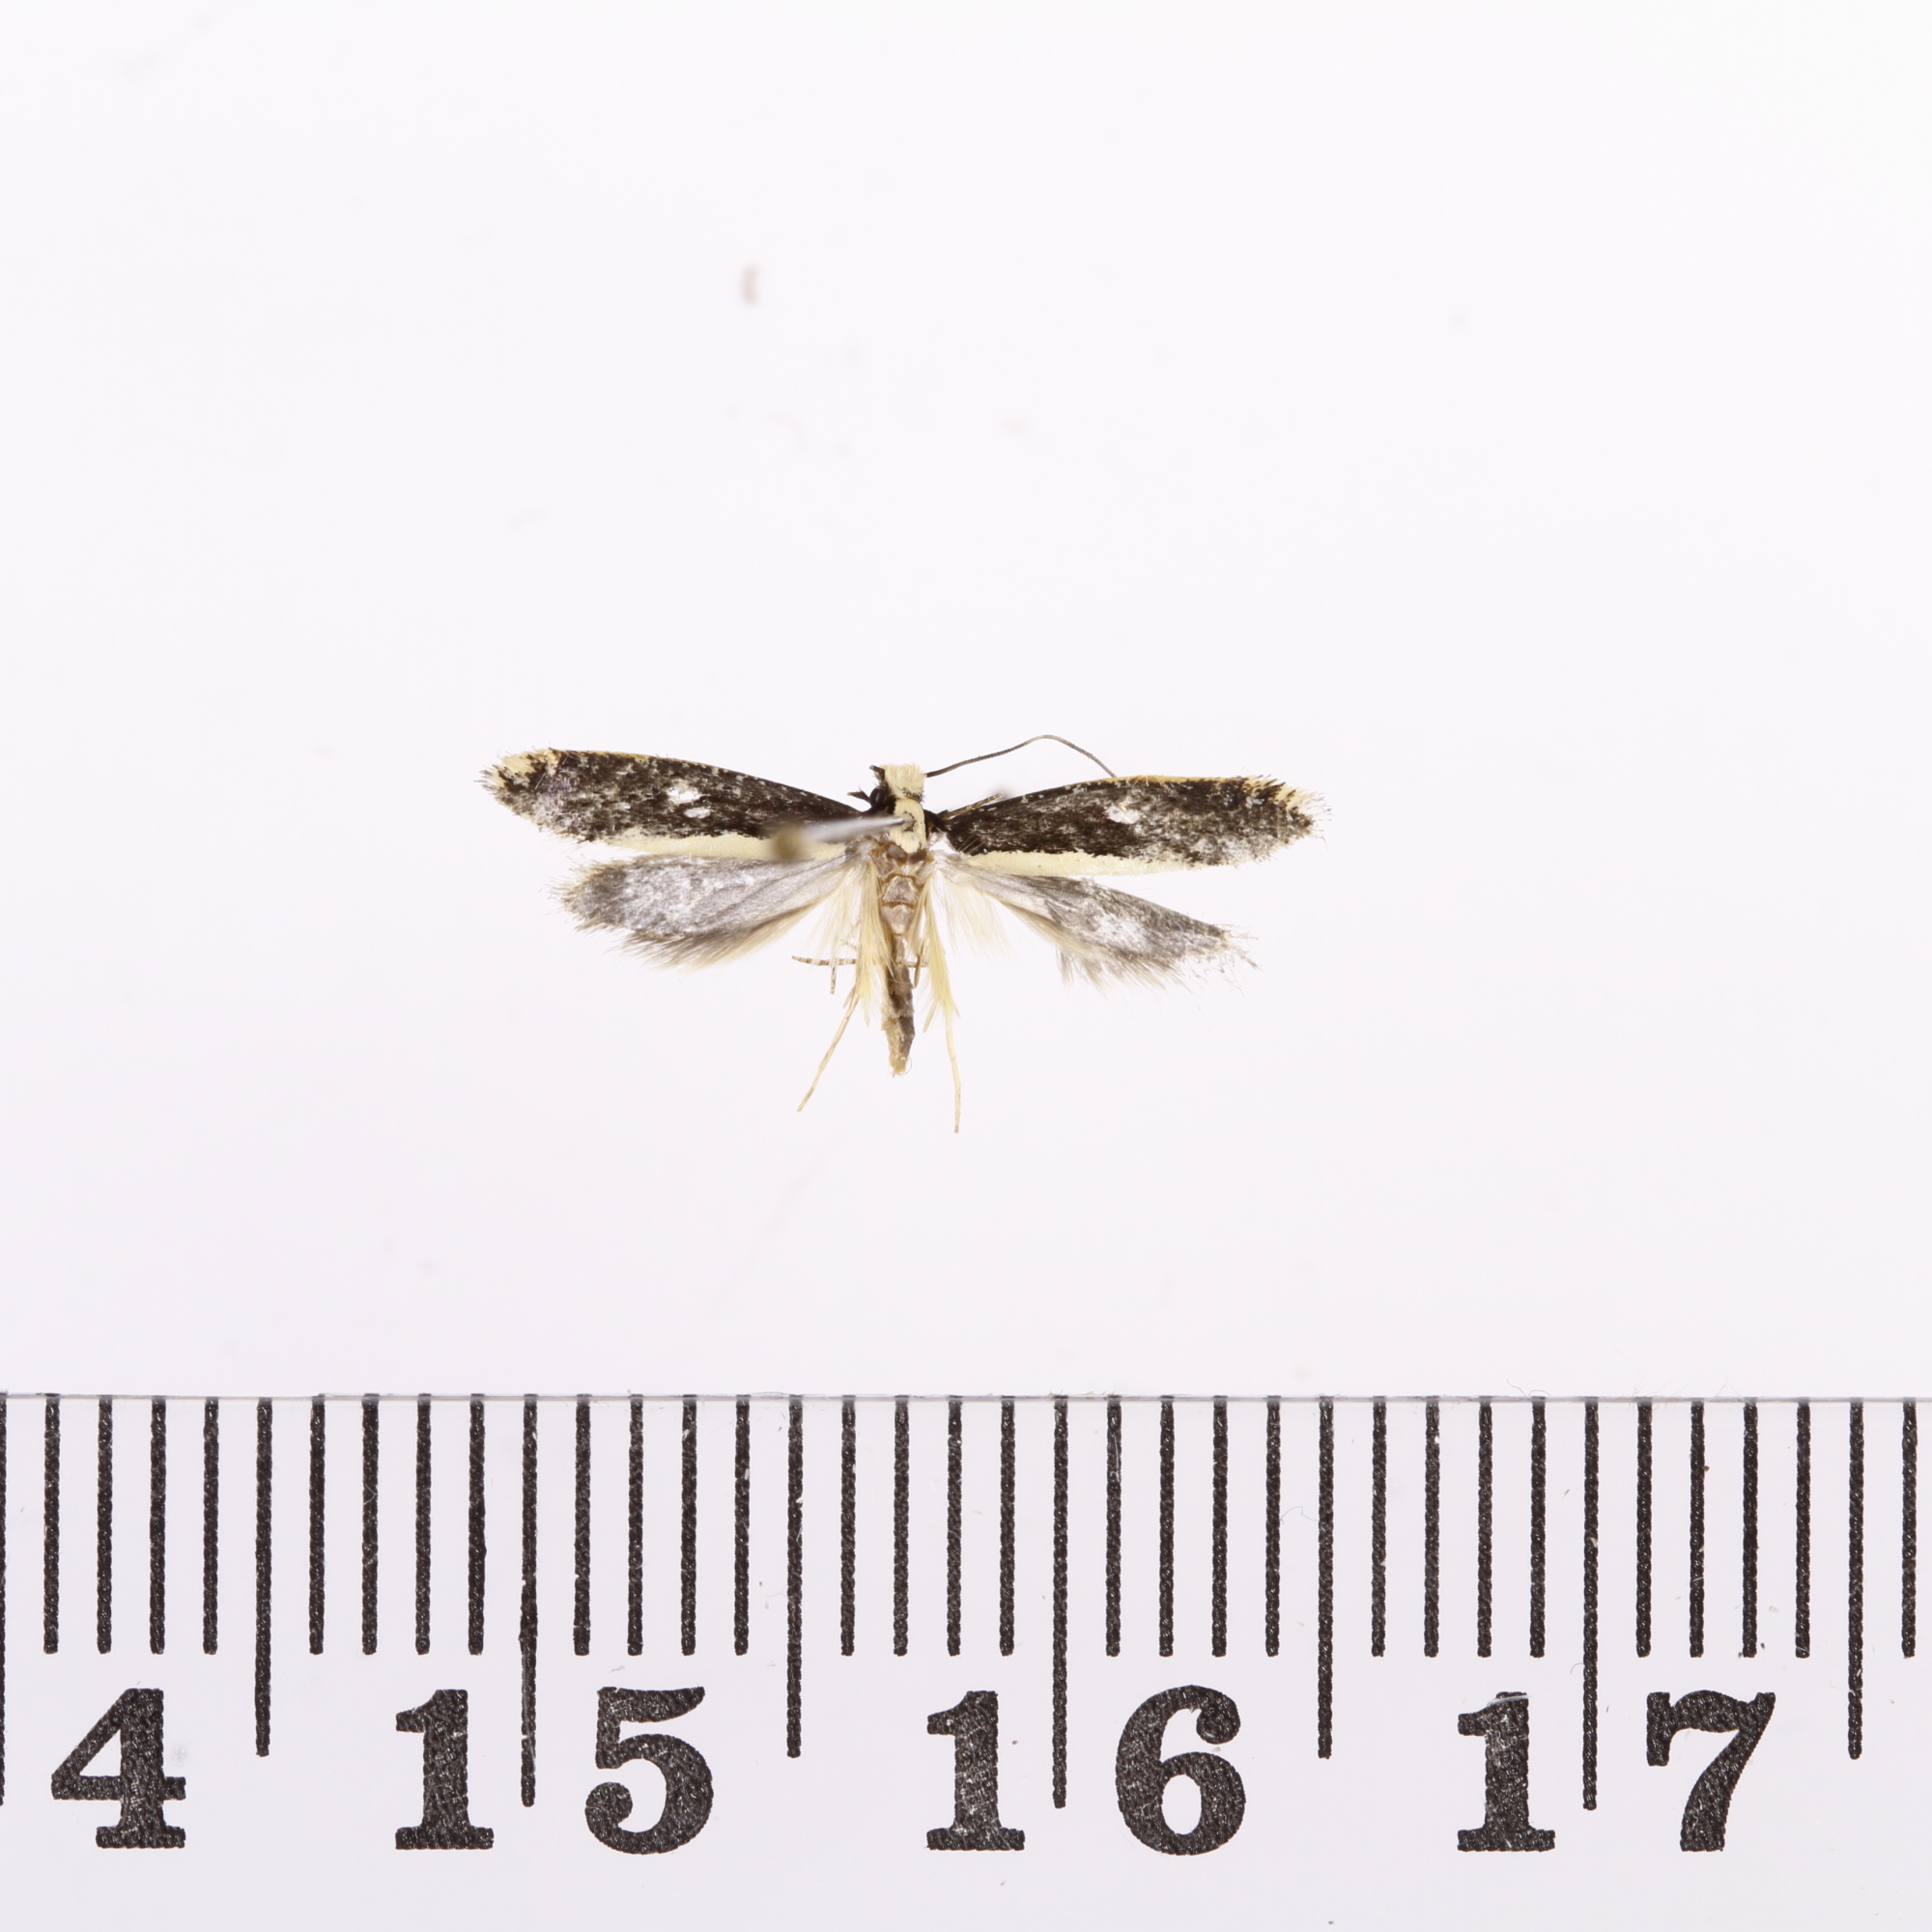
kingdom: Animalia
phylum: Arthropoda
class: Insecta
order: Lepidoptera
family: Tineidae
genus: Monopis
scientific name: Monopis ethelella
